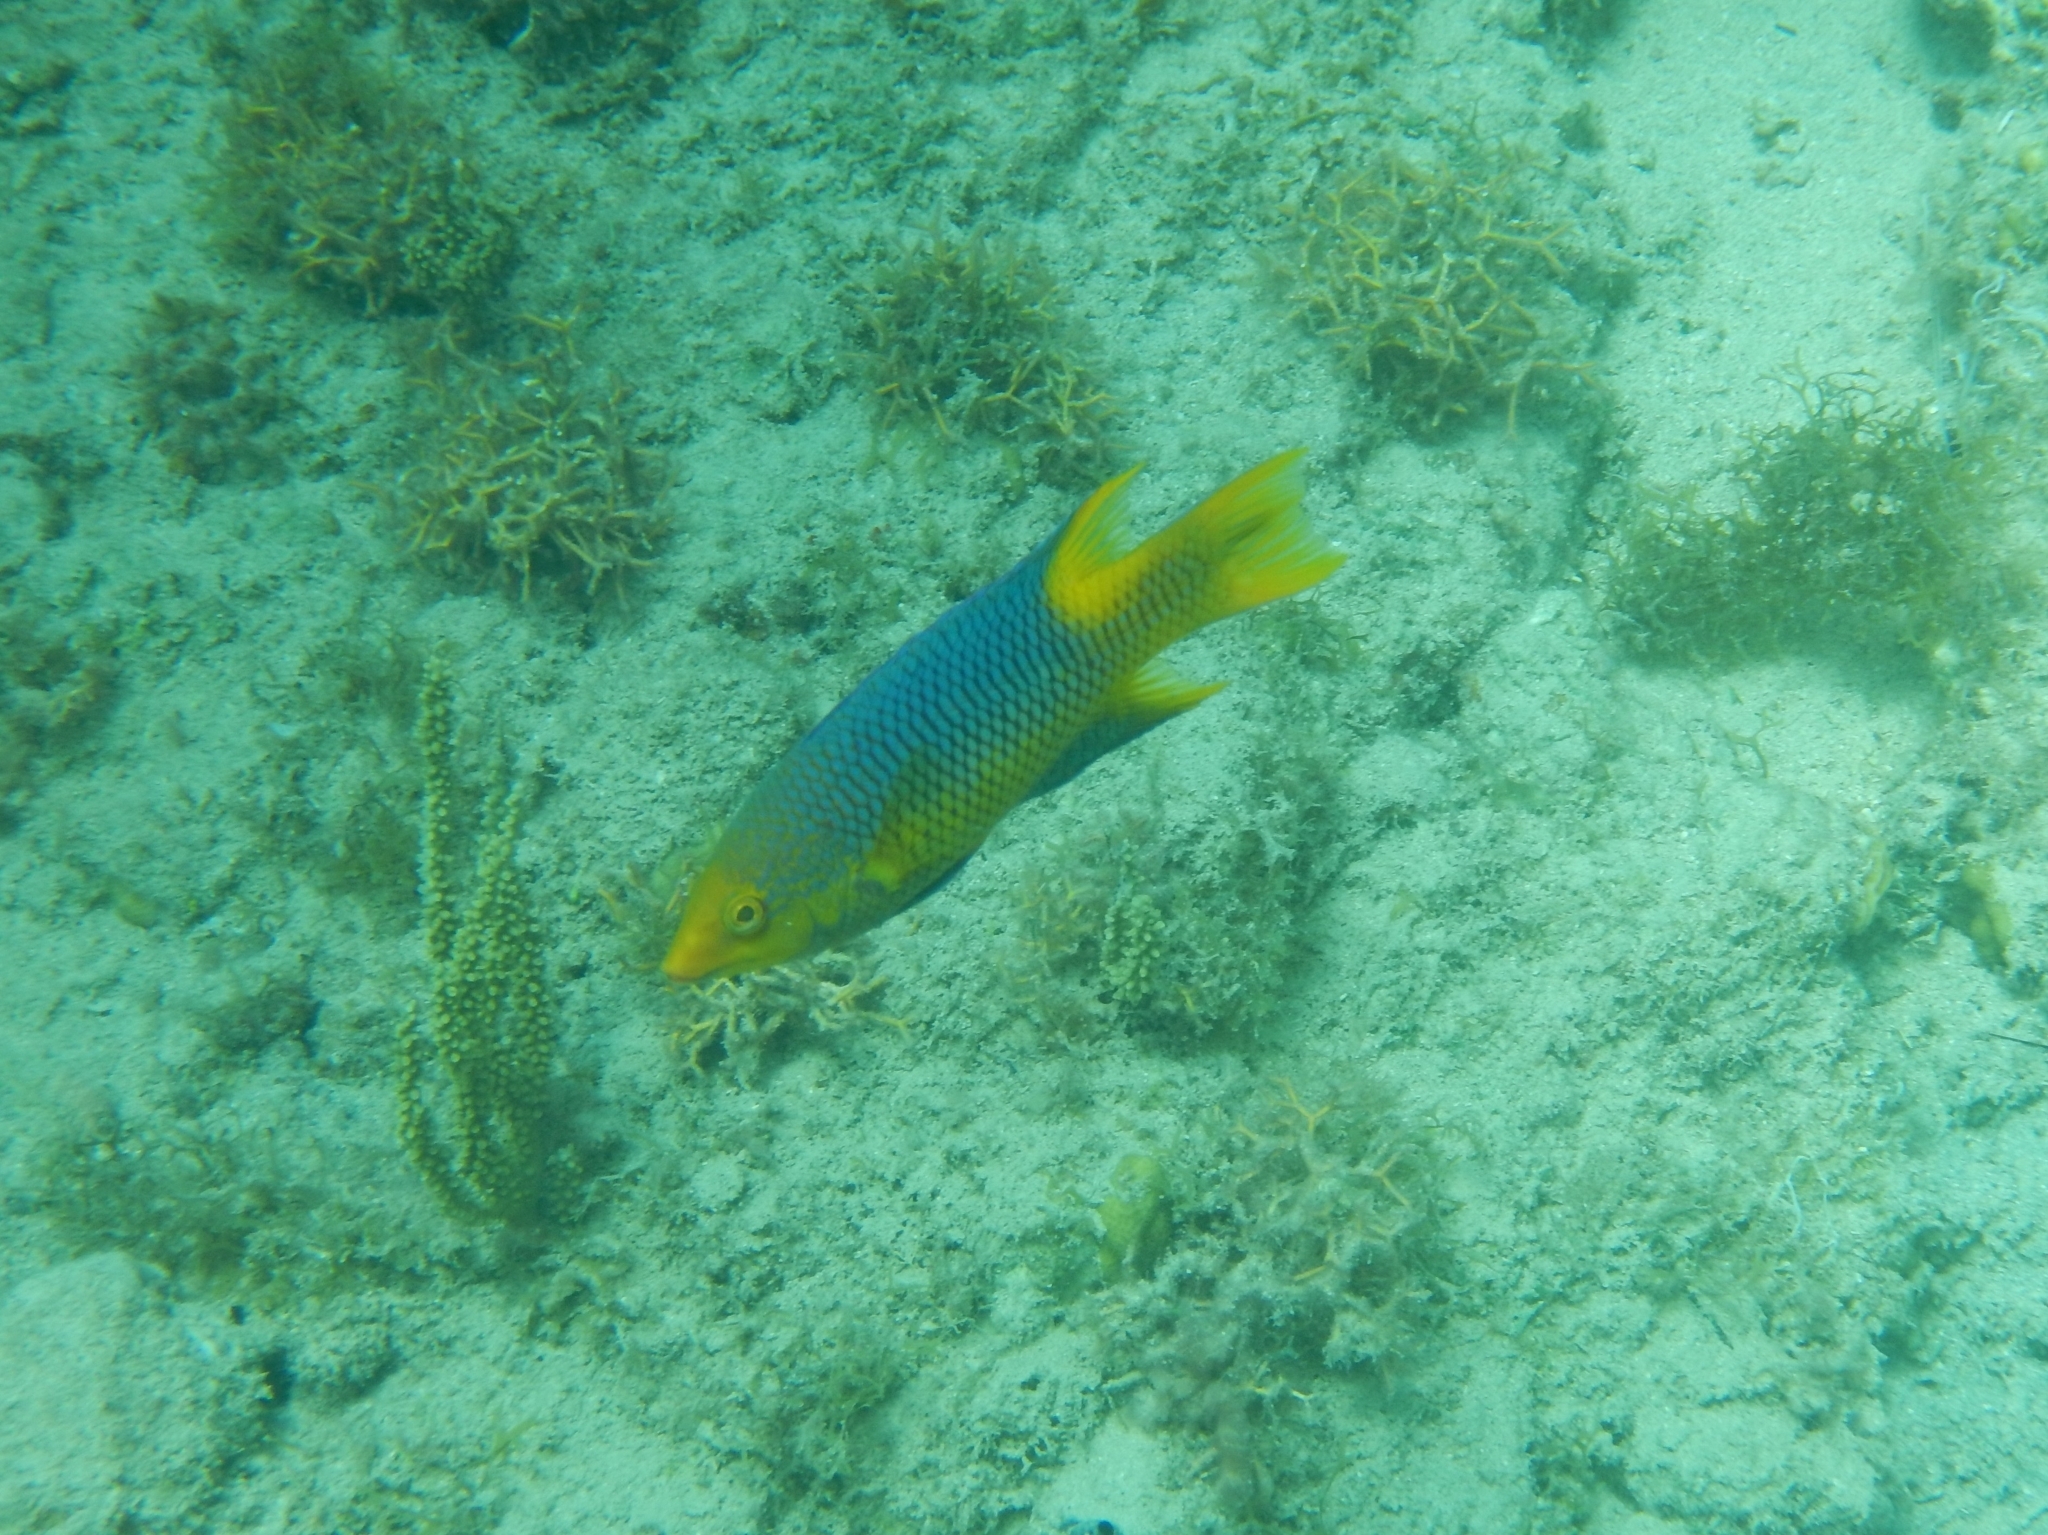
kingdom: Animalia
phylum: Chordata
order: Perciformes
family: Labridae
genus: Bodianus
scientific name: Bodianus rufus
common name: Spanish hogfish
